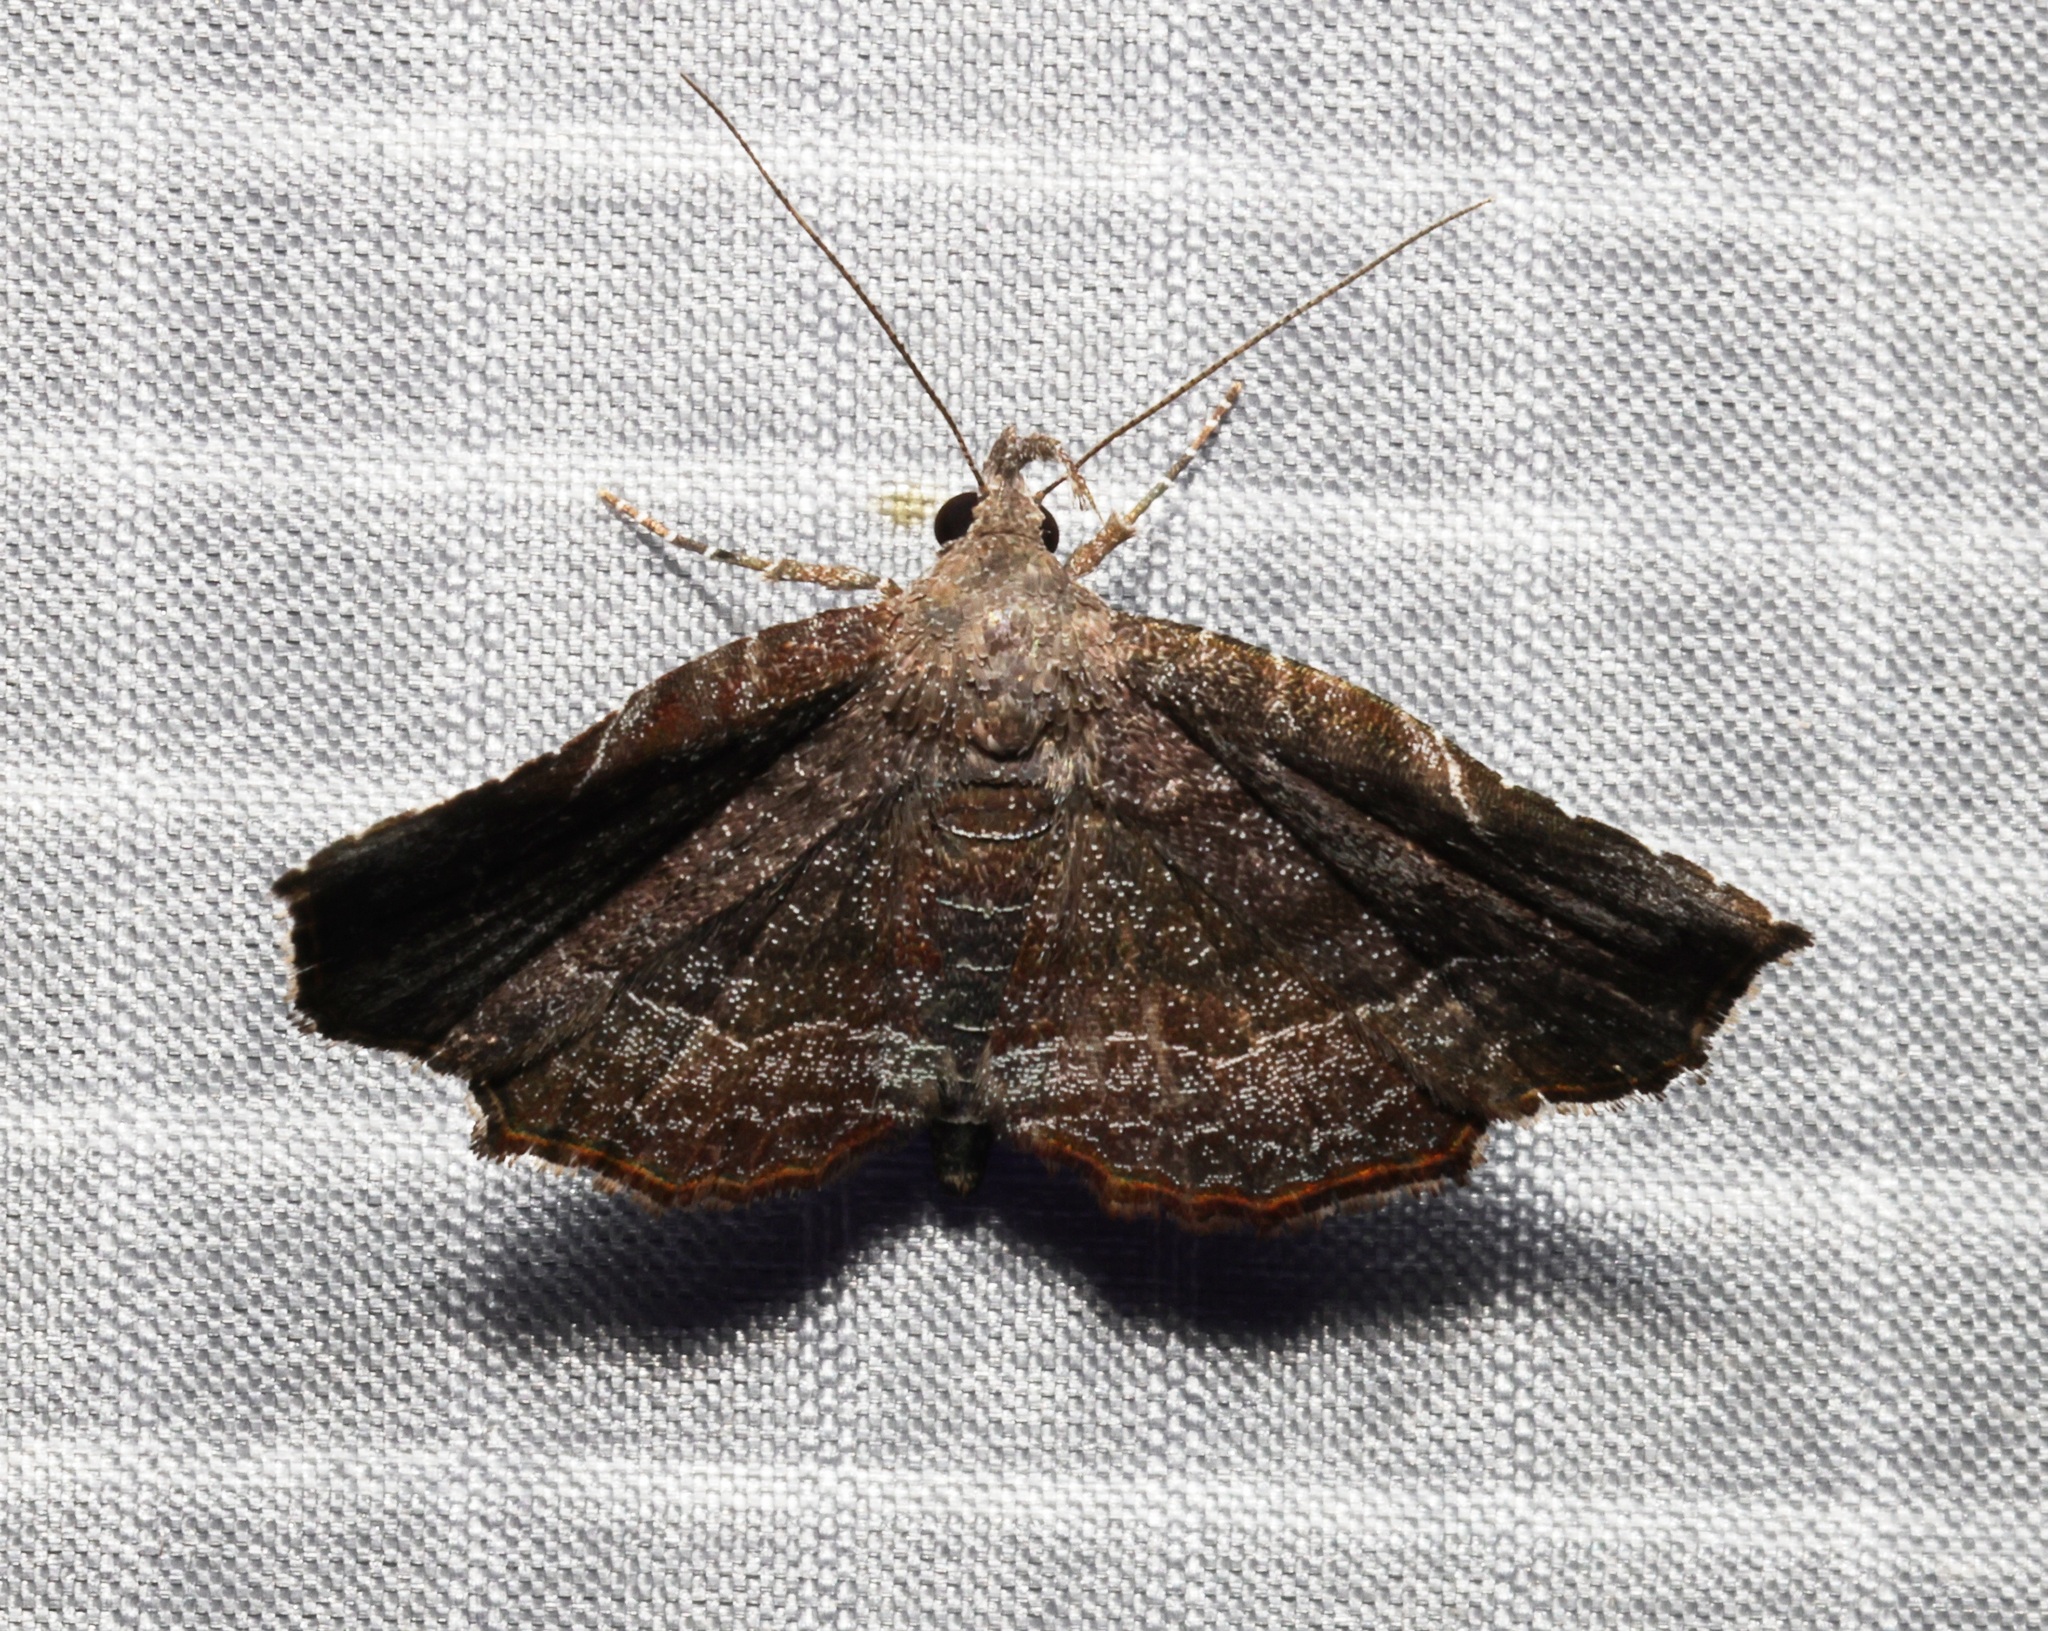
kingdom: Animalia
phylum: Arthropoda
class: Insecta
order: Lepidoptera
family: Erebidae
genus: Nagadeba
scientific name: Nagadeba indecoralis
